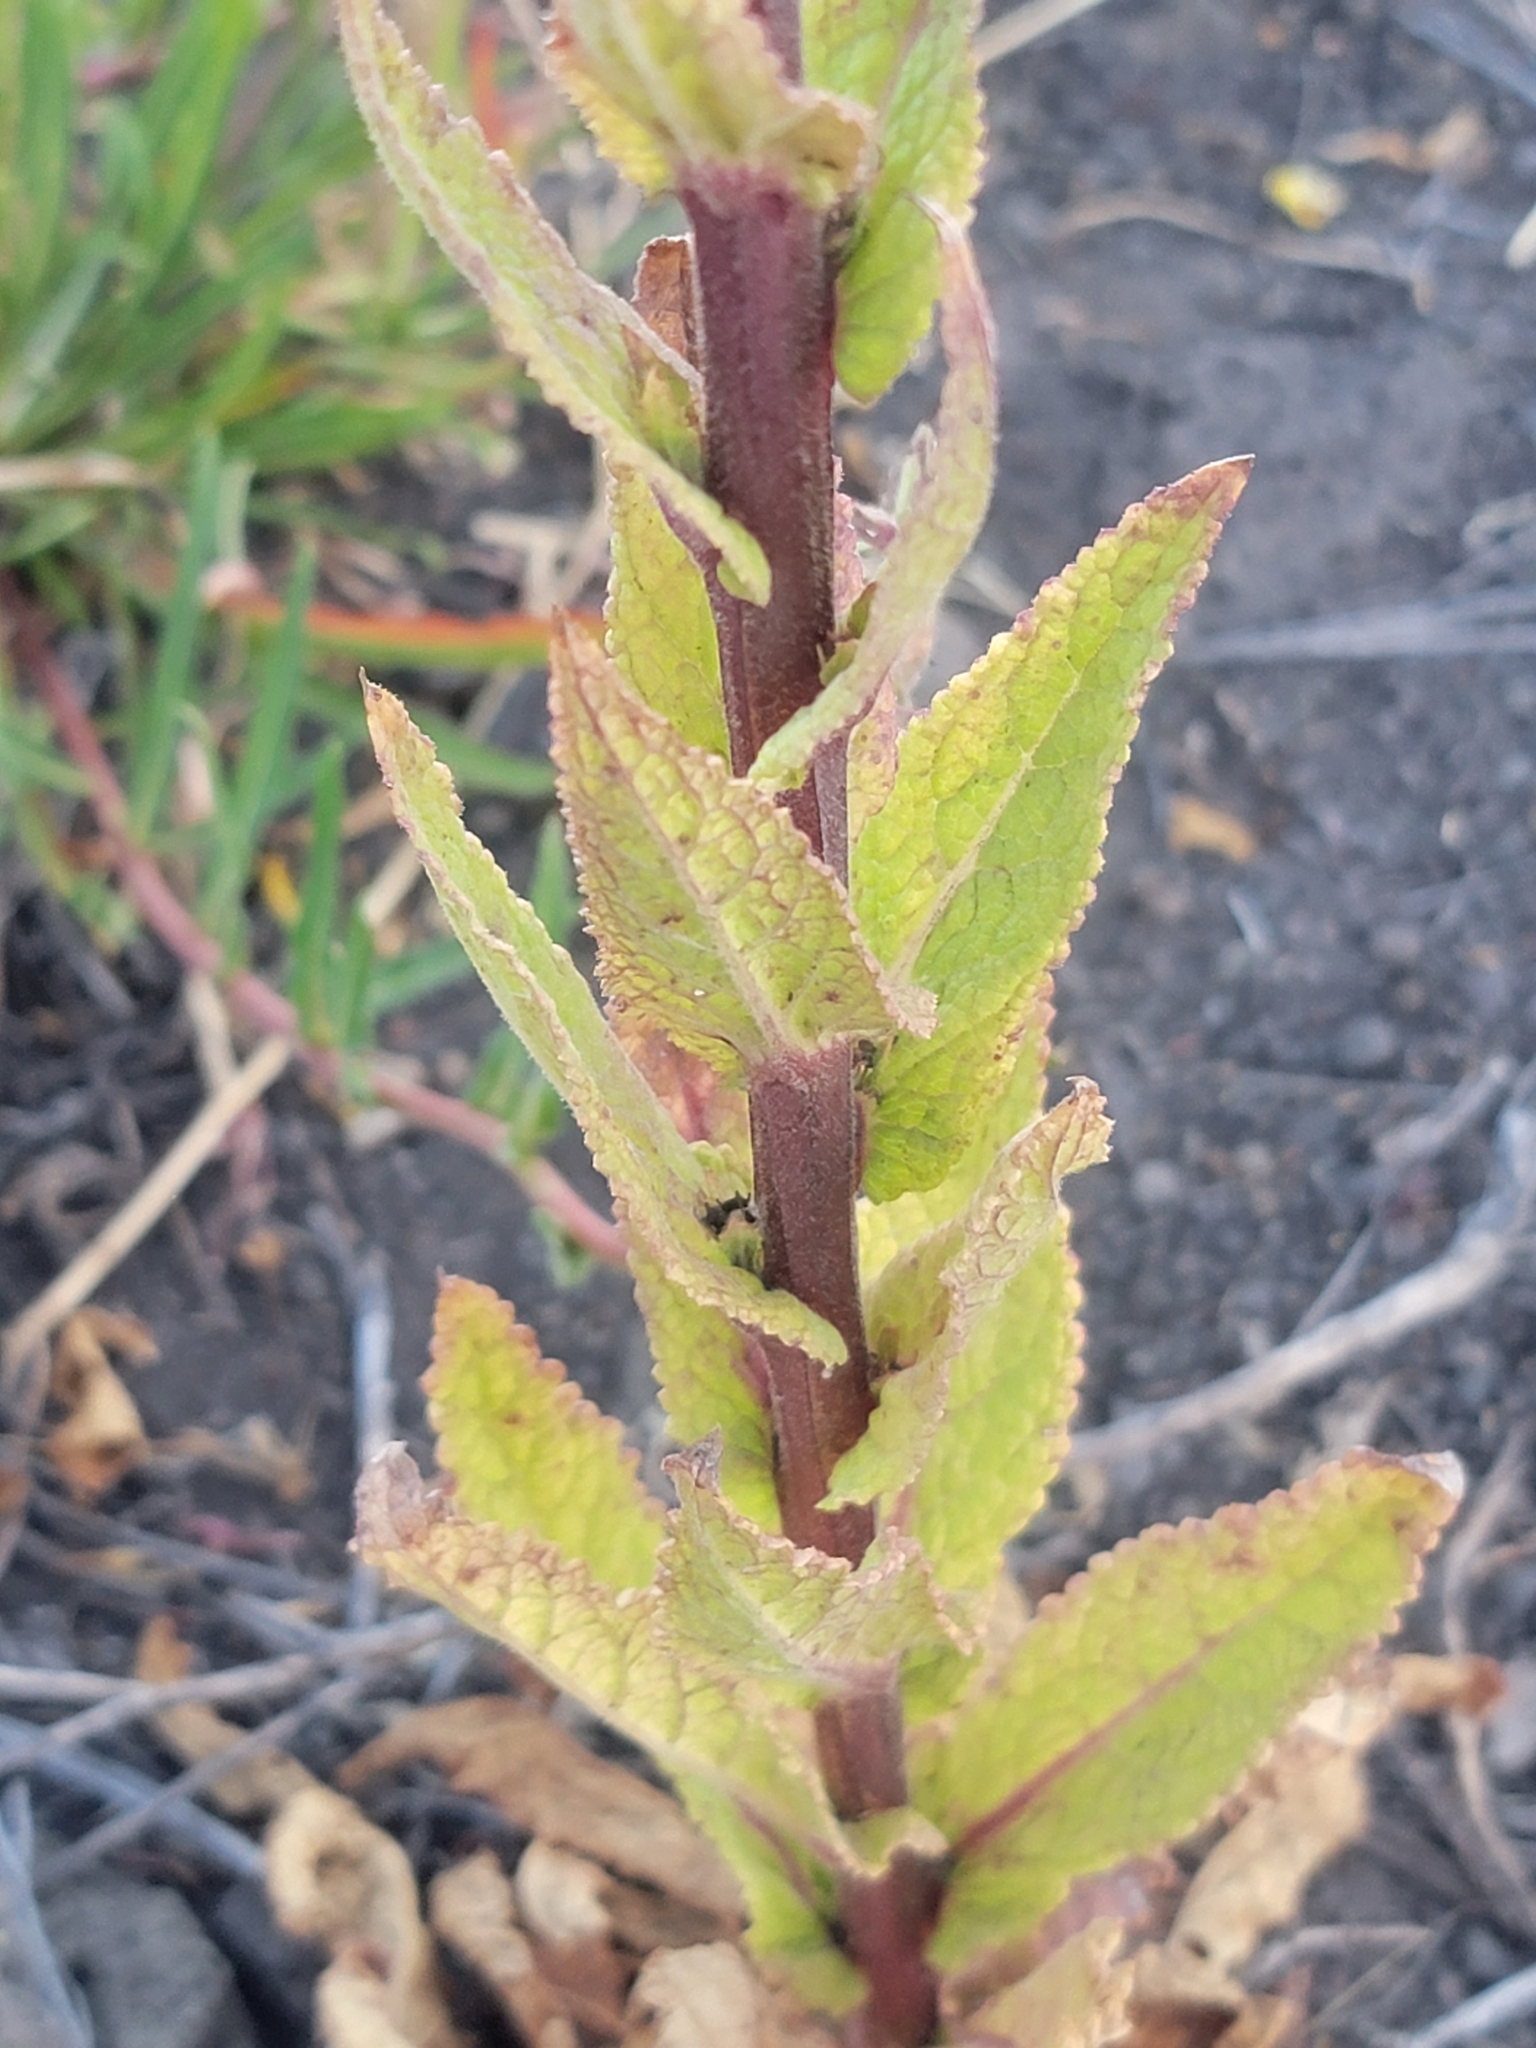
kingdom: Plantae
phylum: Tracheophyta
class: Magnoliopsida
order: Lamiales
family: Scrophulariaceae
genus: Verbascum
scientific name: Verbascum virgatum
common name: Twiggy mullein
